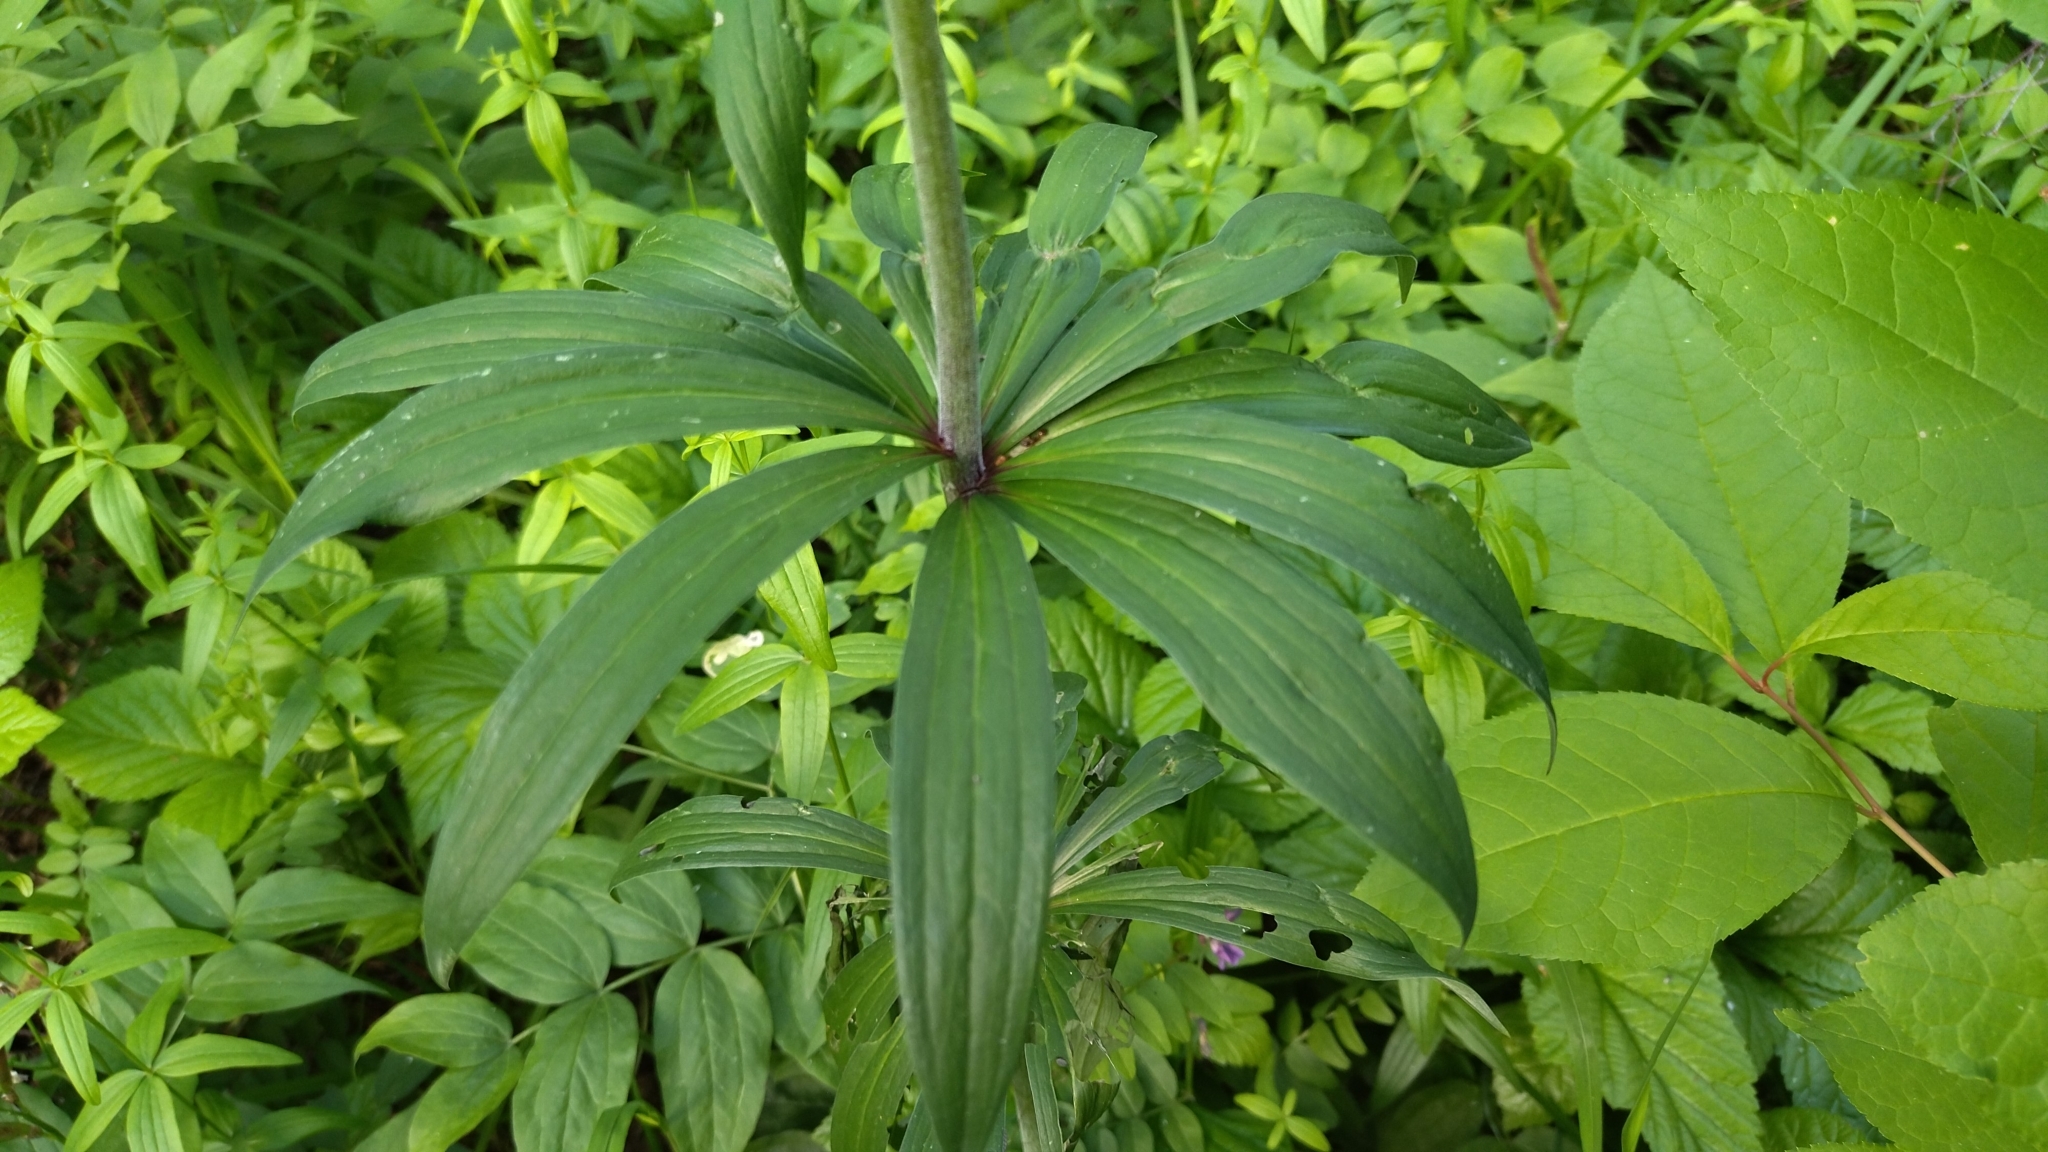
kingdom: Plantae
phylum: Tracheophyta
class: Liliopsida
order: Liliales
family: Liliaceae
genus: Lilium
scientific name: Lilium martagon
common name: Martagon lily
